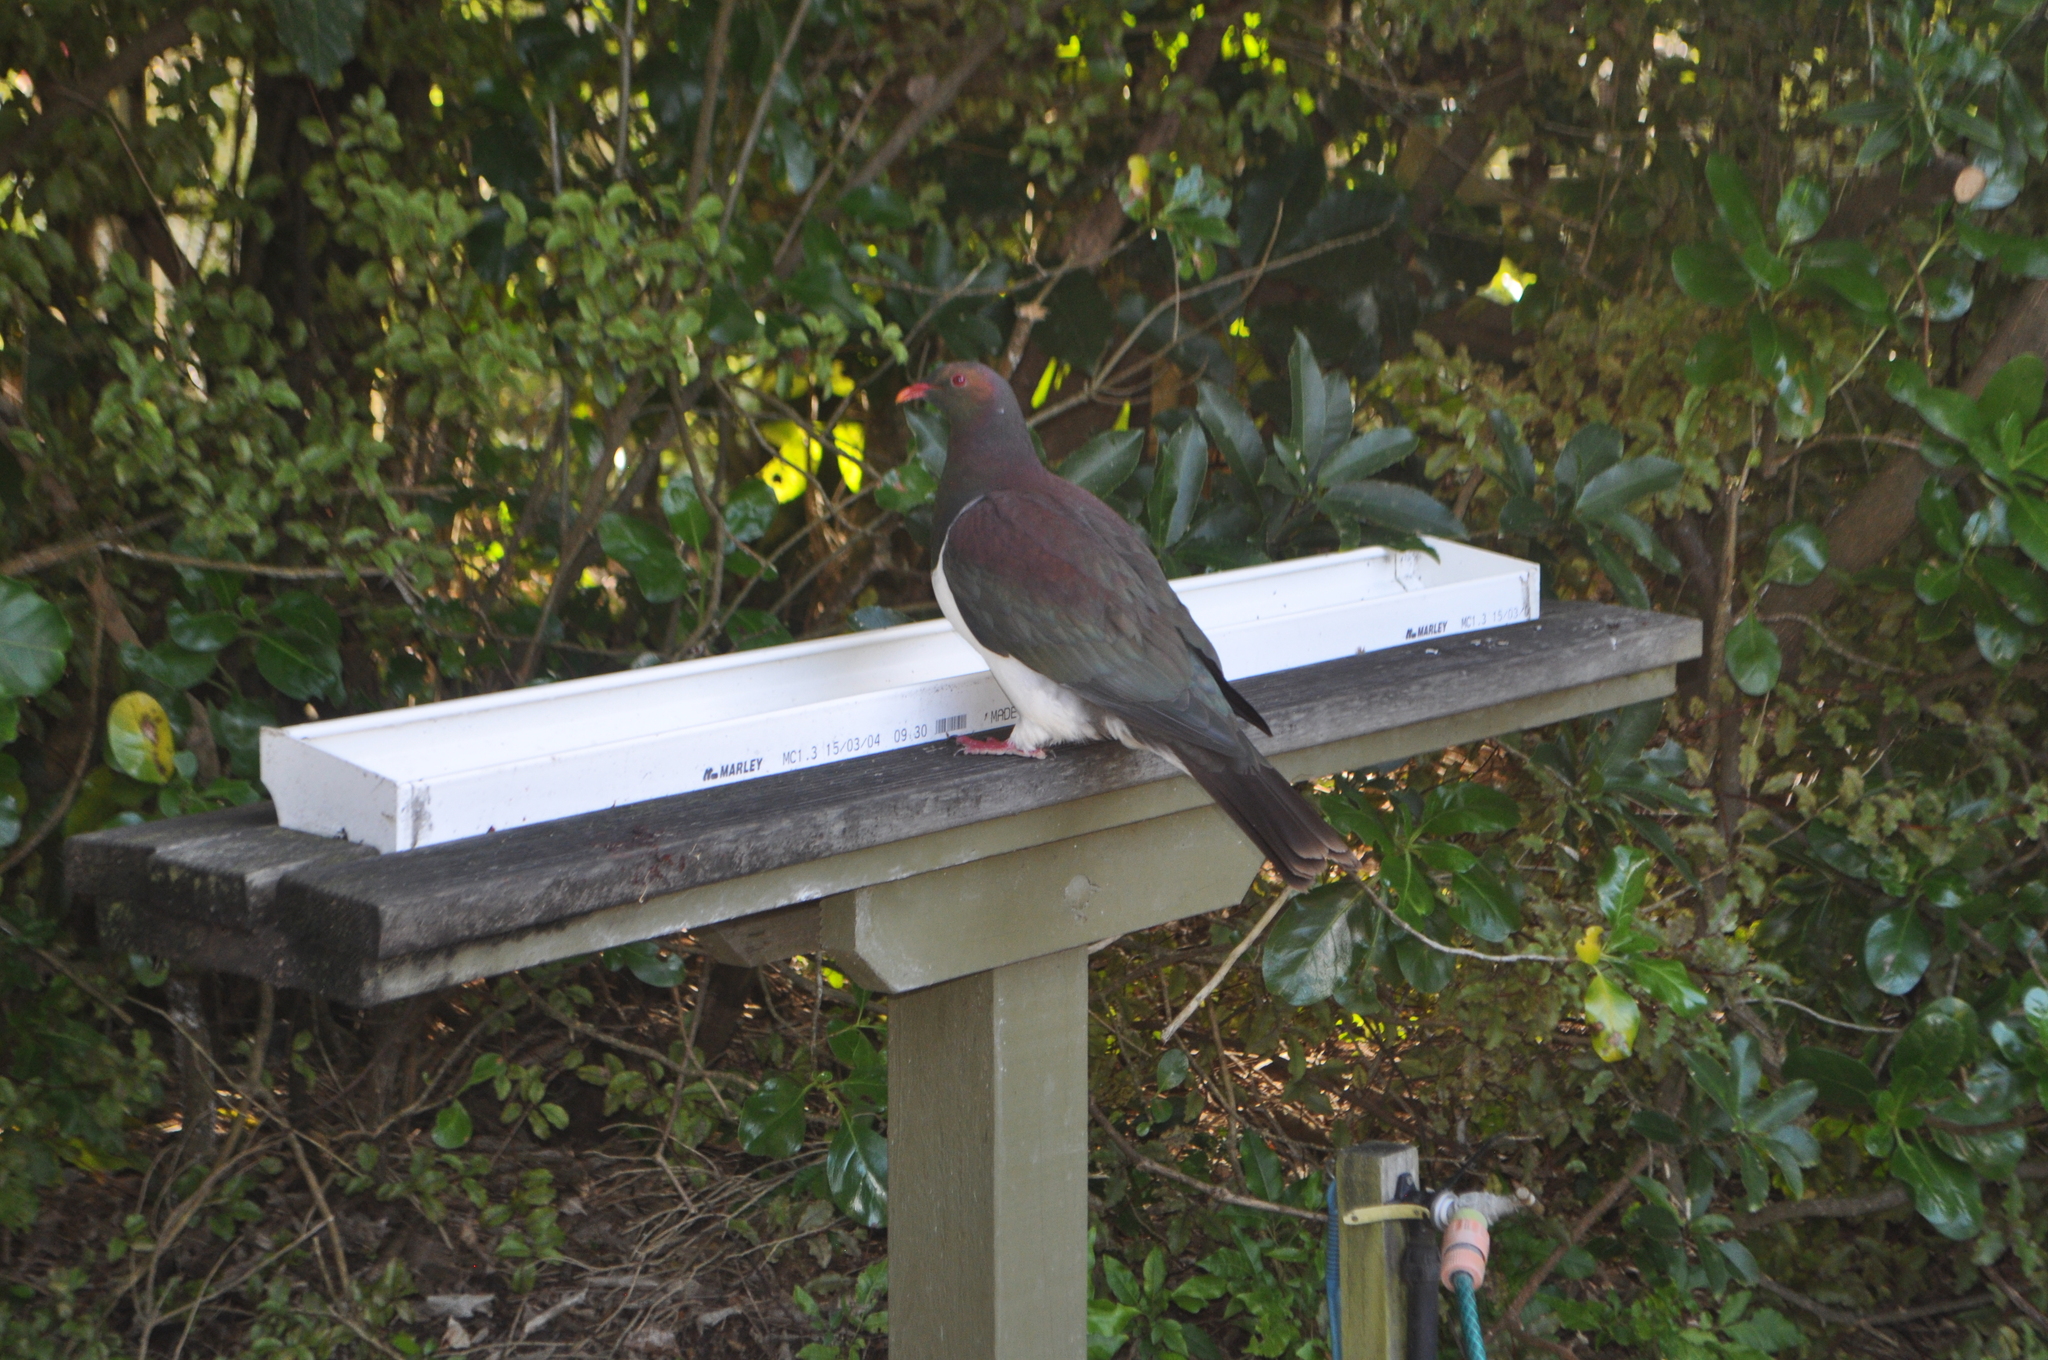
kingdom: Animalia
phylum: Chordata
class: Aves
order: Columbiformes
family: Columbidae
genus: Hemiphaga
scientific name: Hemiphaga novaeseelandiae
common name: New zealand pigeon
